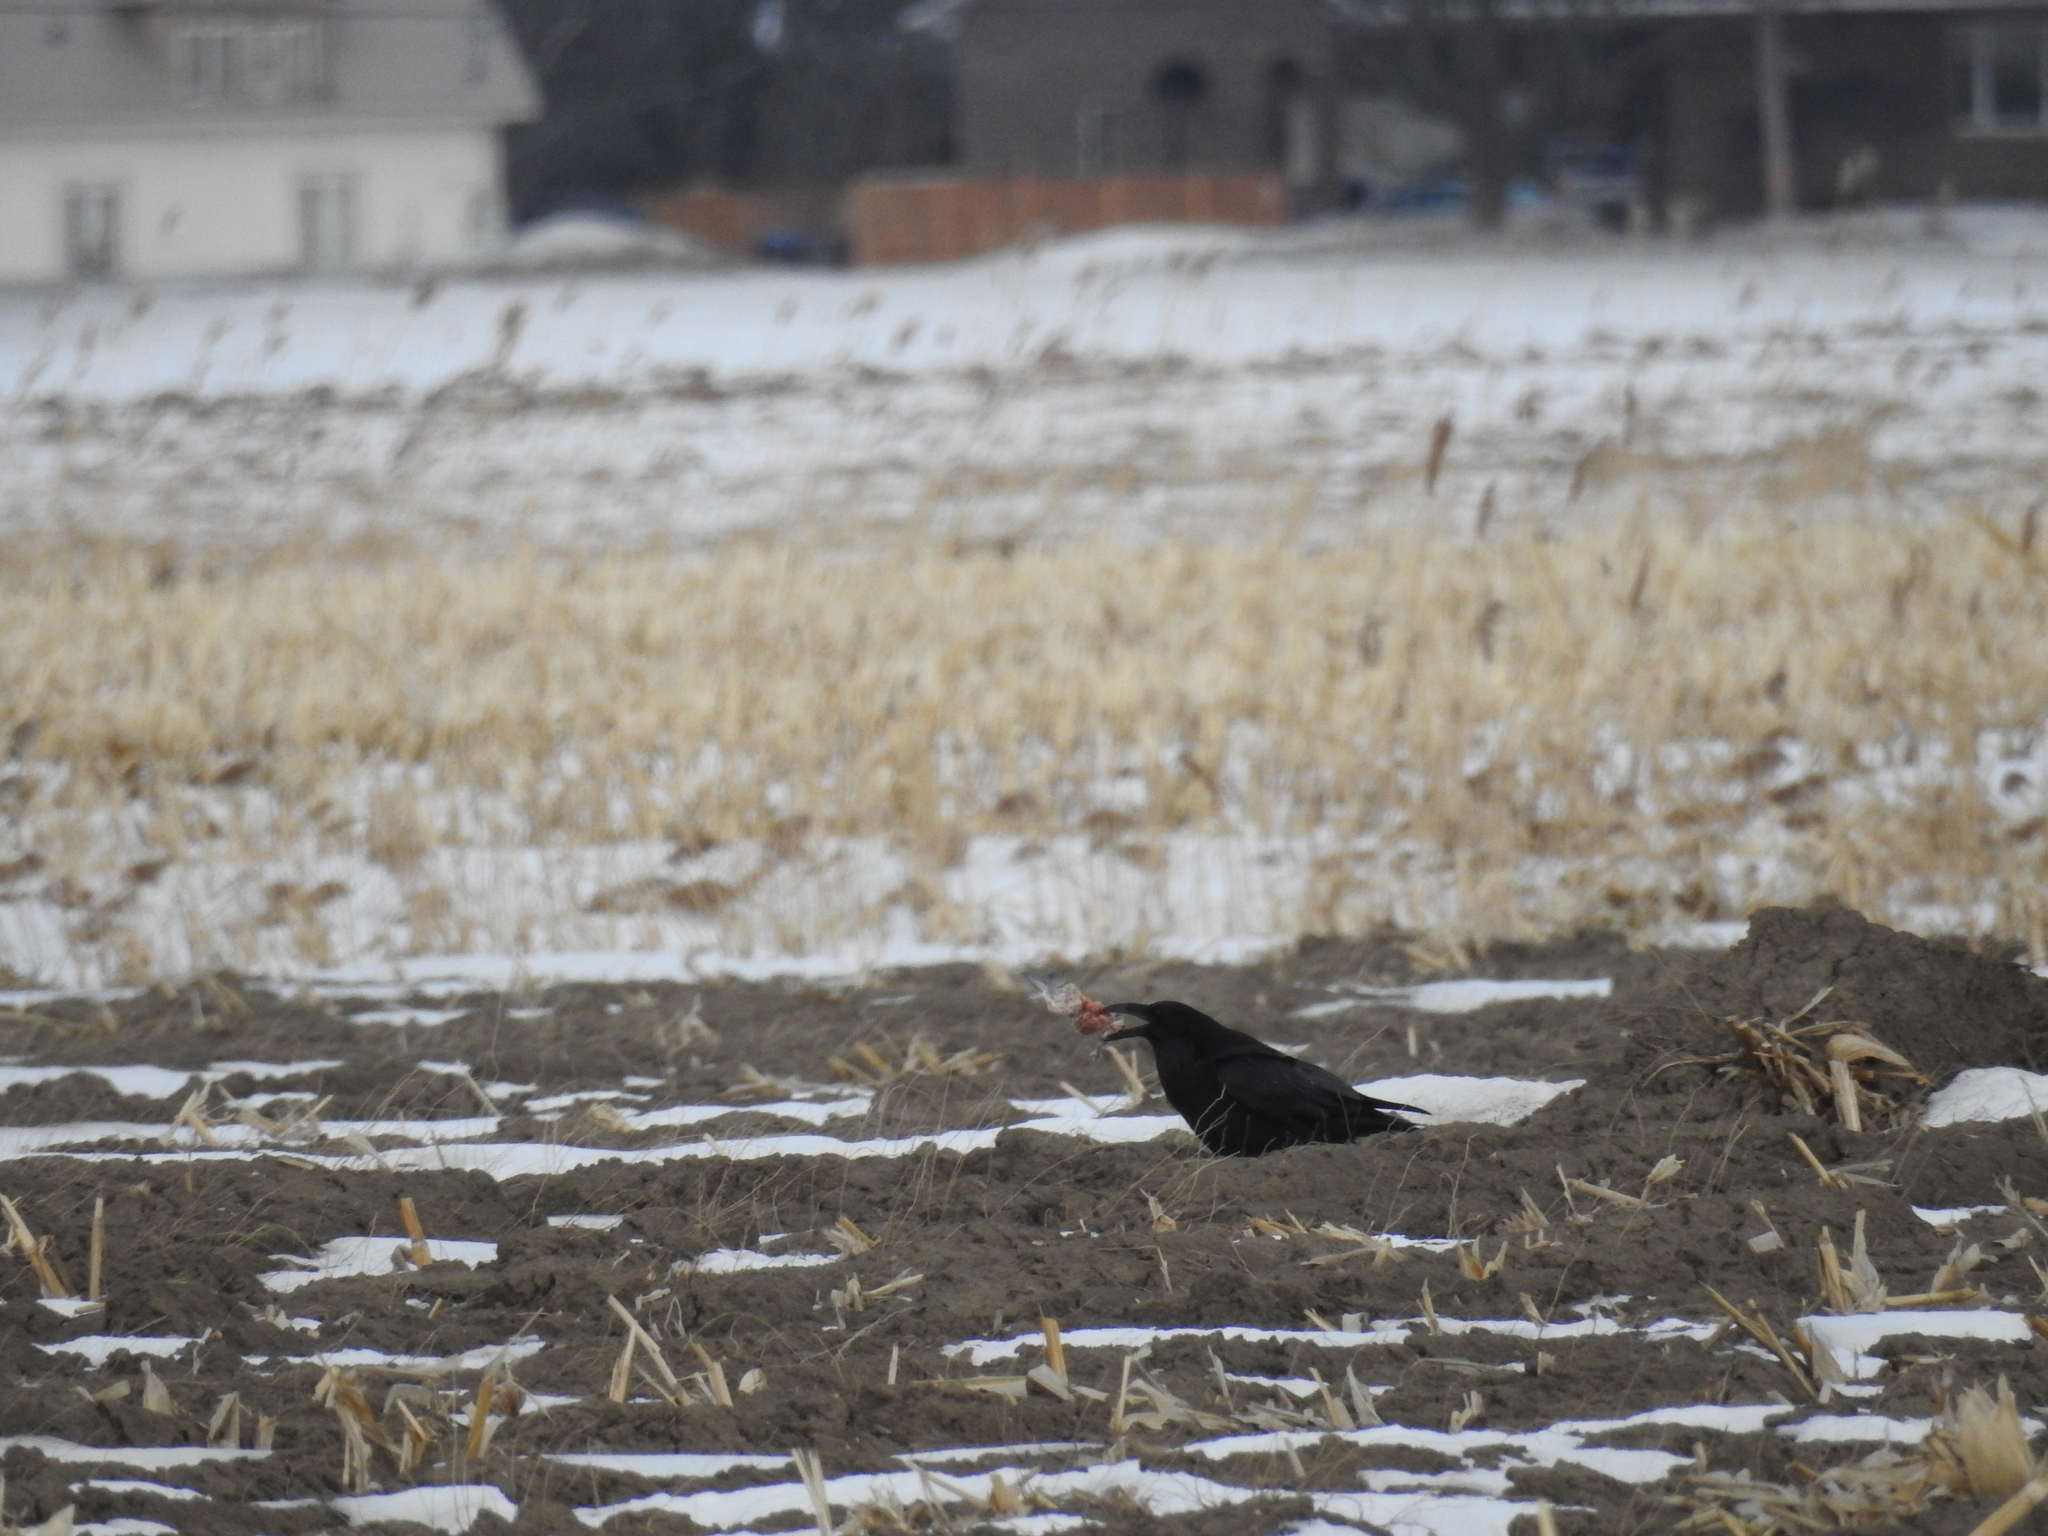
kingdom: Animalia
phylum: Chordata
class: Aves
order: Passeriformes
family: Corvidae
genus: Corvus
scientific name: Corvus corax
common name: Common raven
